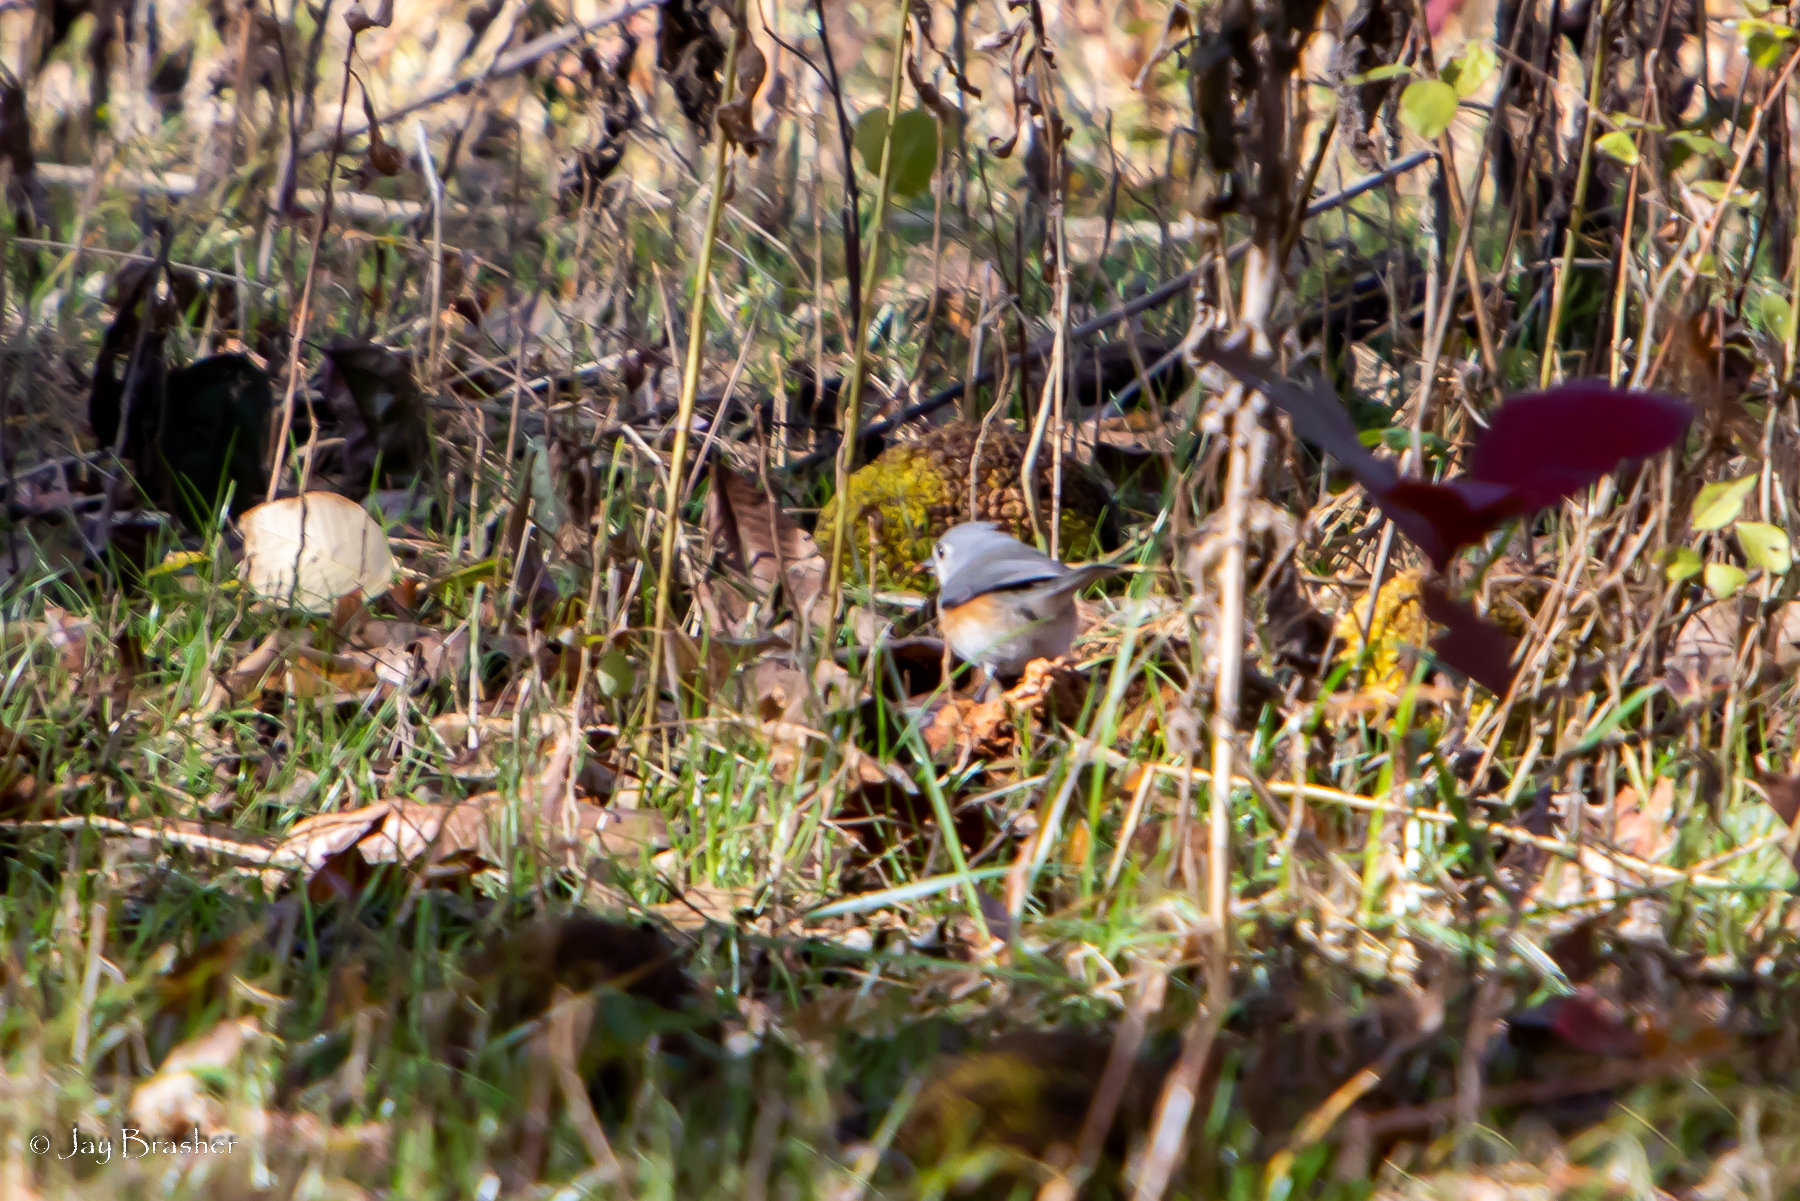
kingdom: Animalia
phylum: Chordata
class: Aves
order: Passeriformes
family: Paridae
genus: Baeolophus
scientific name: Baeolophus bicolor
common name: Tufted titmouse
